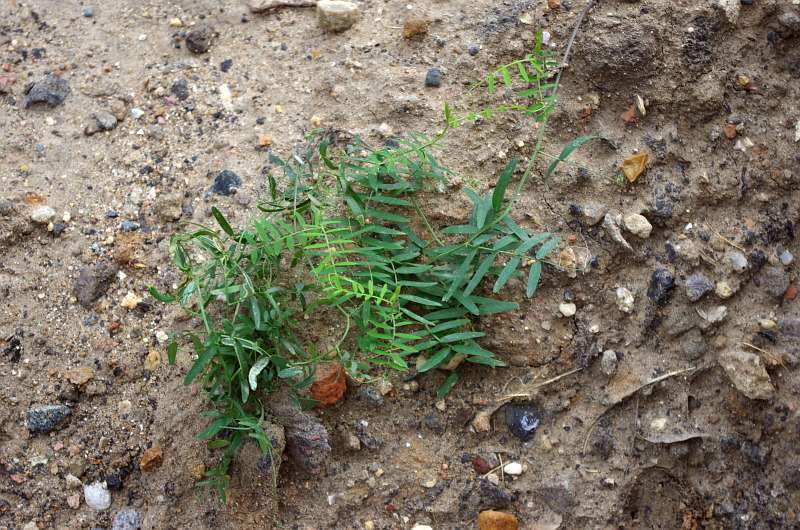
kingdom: Plantae
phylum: Tracheophyta
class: Magnoliopsida
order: Fabales
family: Fabaceae
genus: Vicia
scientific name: Vicia cracca
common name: Bird vetch
